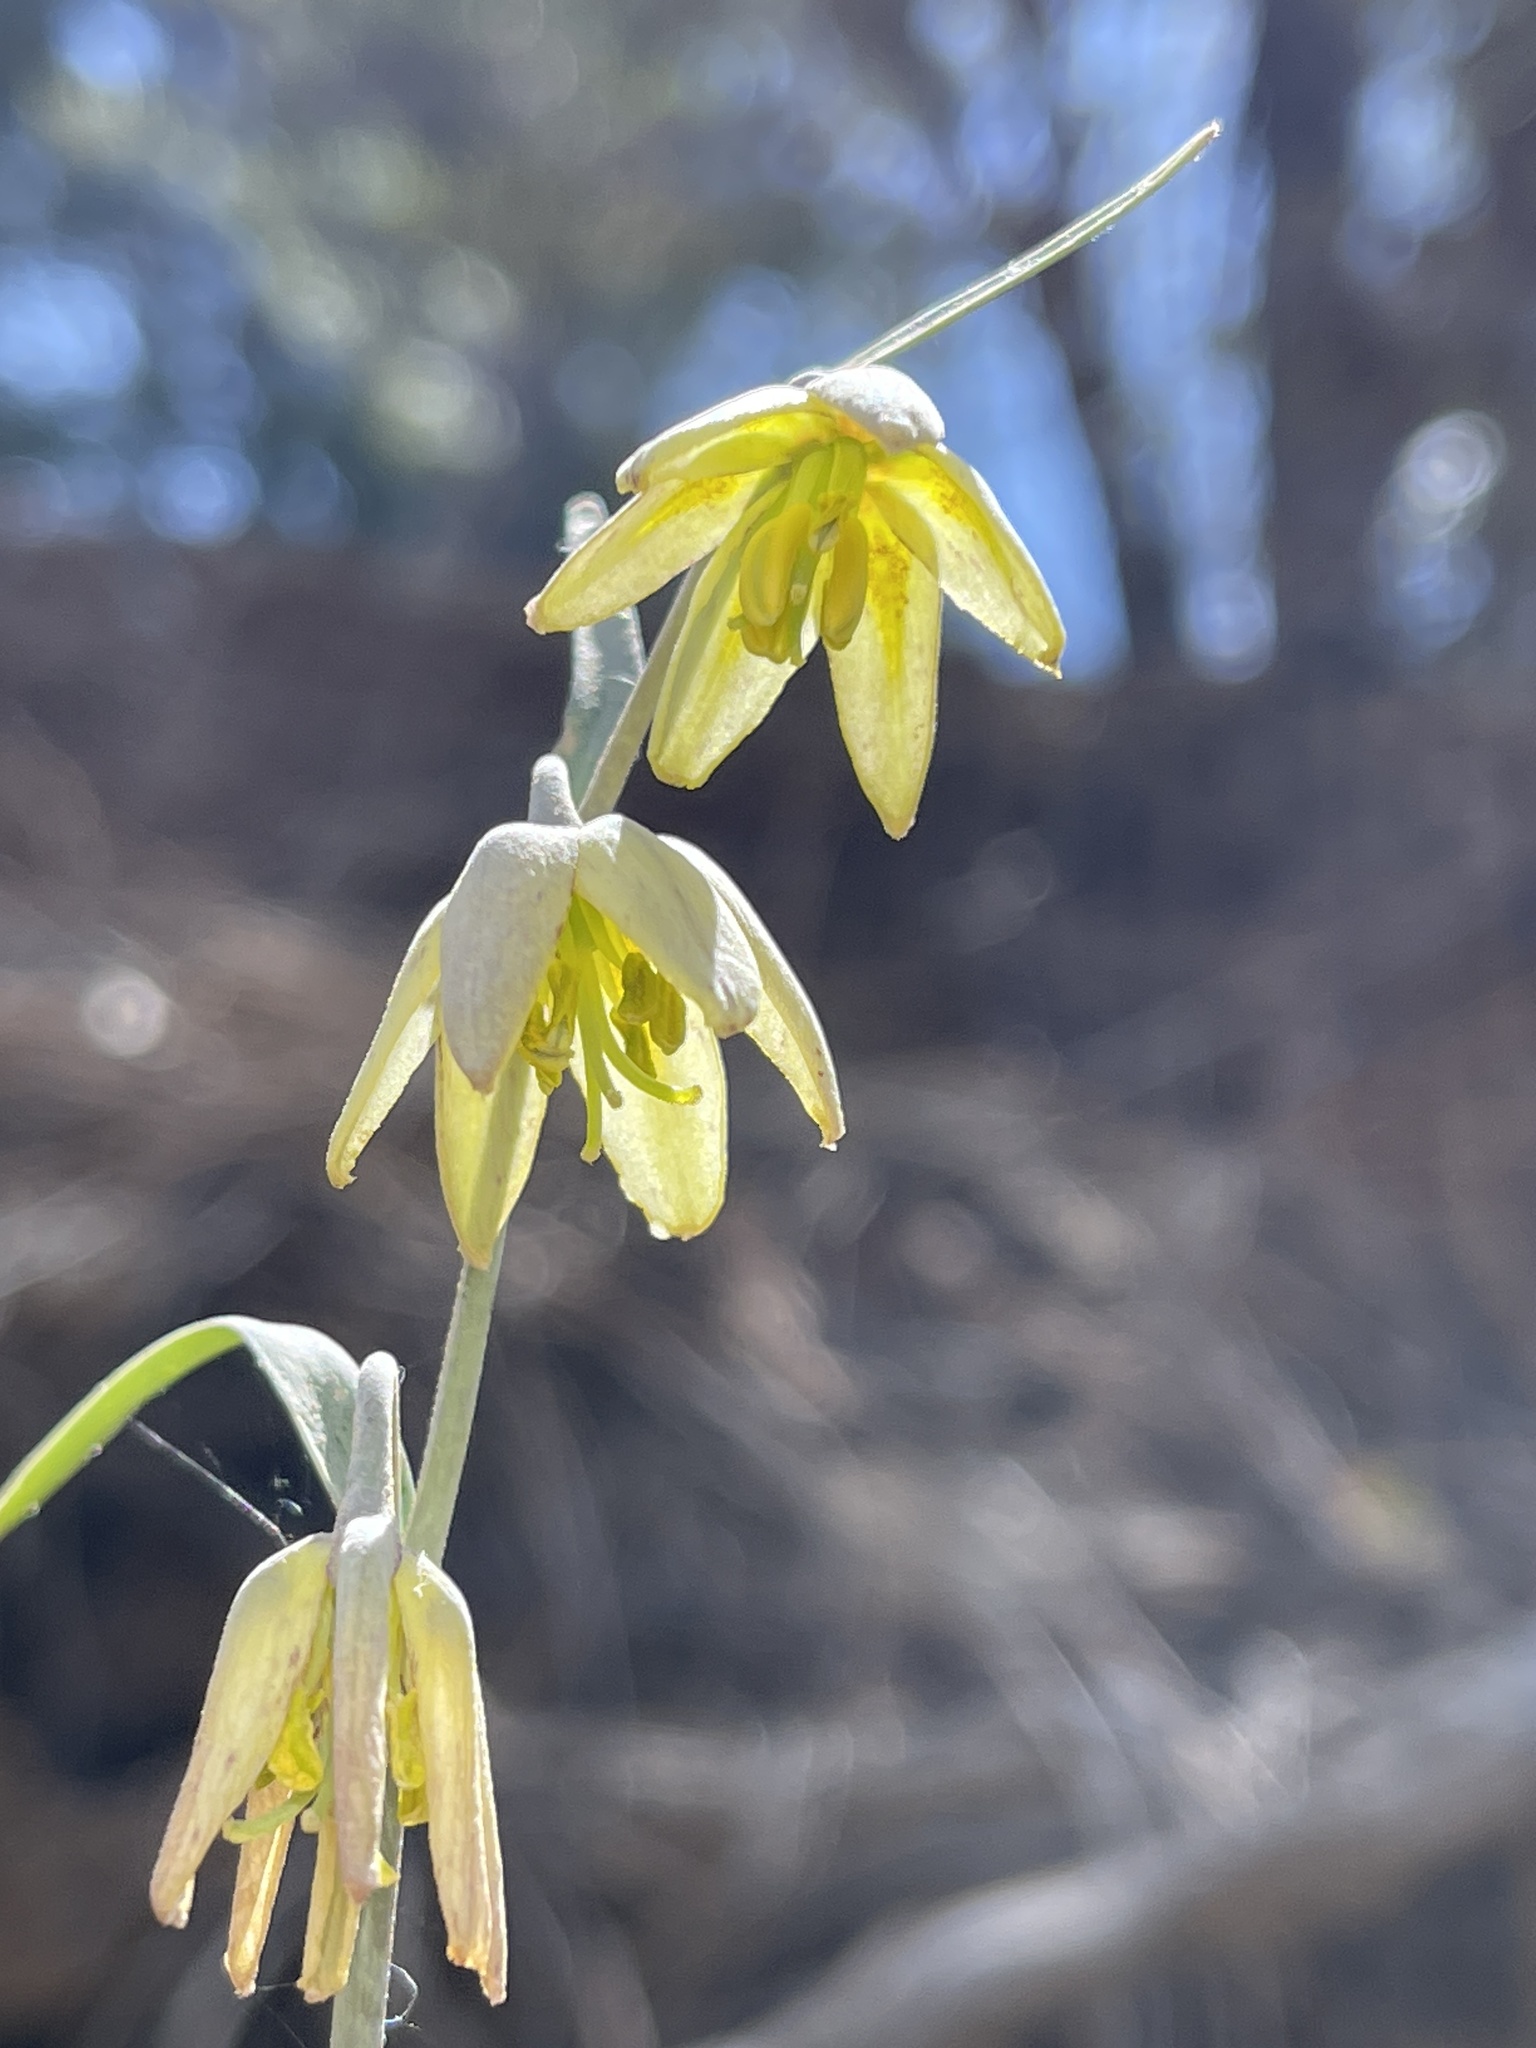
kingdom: Plantae
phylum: Tracheophyta
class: Liliopsida
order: Liliales
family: Liliaceae
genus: Fritillaria
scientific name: Fritillaria viridea
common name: San benito fritillary
